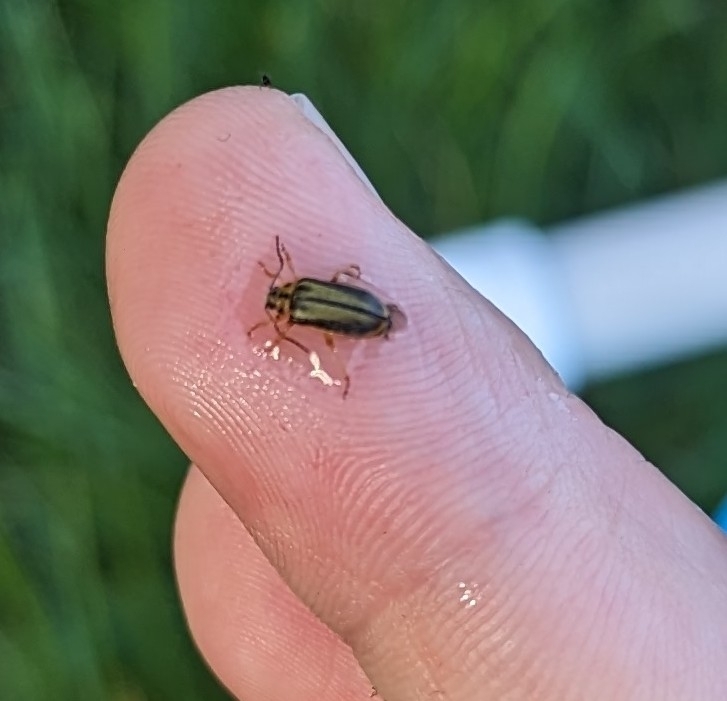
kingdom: Animalia
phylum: Arthropoda
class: Insecta
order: Coleoptera
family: Chrysomelidae
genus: Xanthogaleruca
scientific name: Xanthogaleruca luteola
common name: Elm leaf beetle
